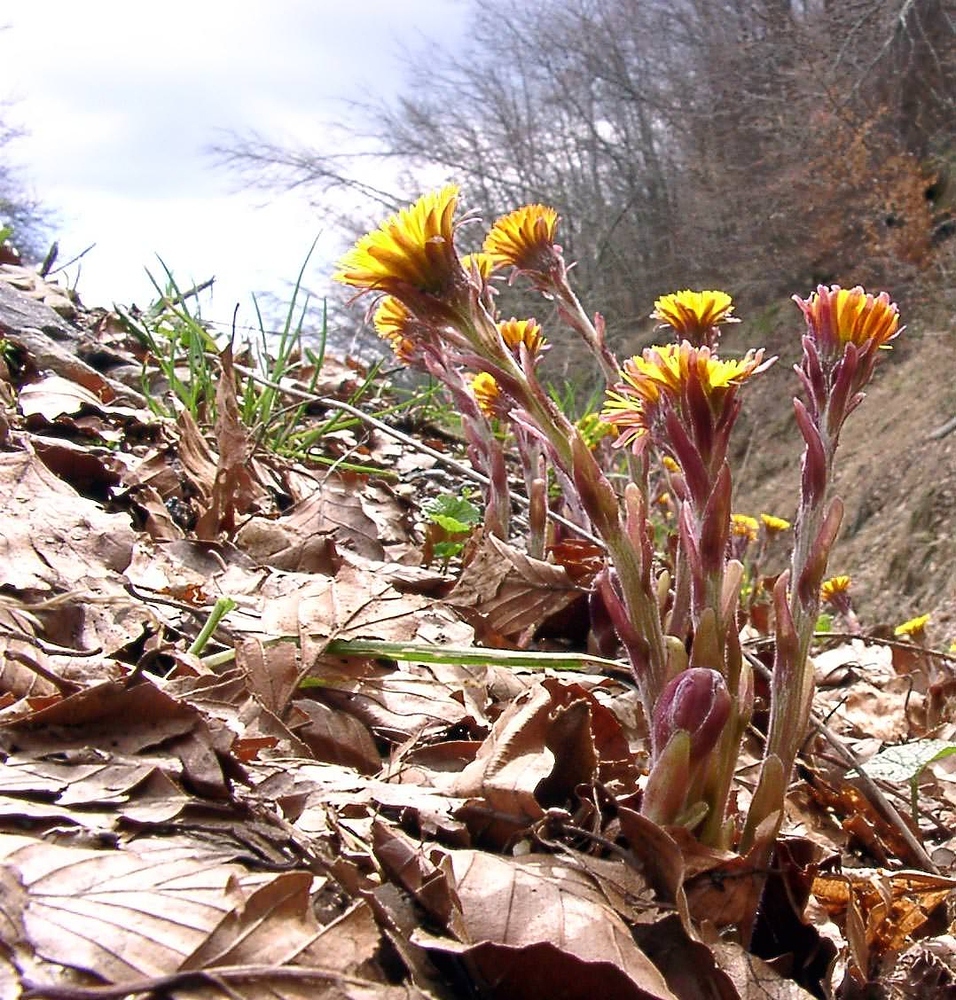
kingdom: Plantae
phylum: Tracheophyta
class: Magnoliopsida
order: Asterales
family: Asteraceae
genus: Tussilago
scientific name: Tussilago farfara
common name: Coltsfoot
